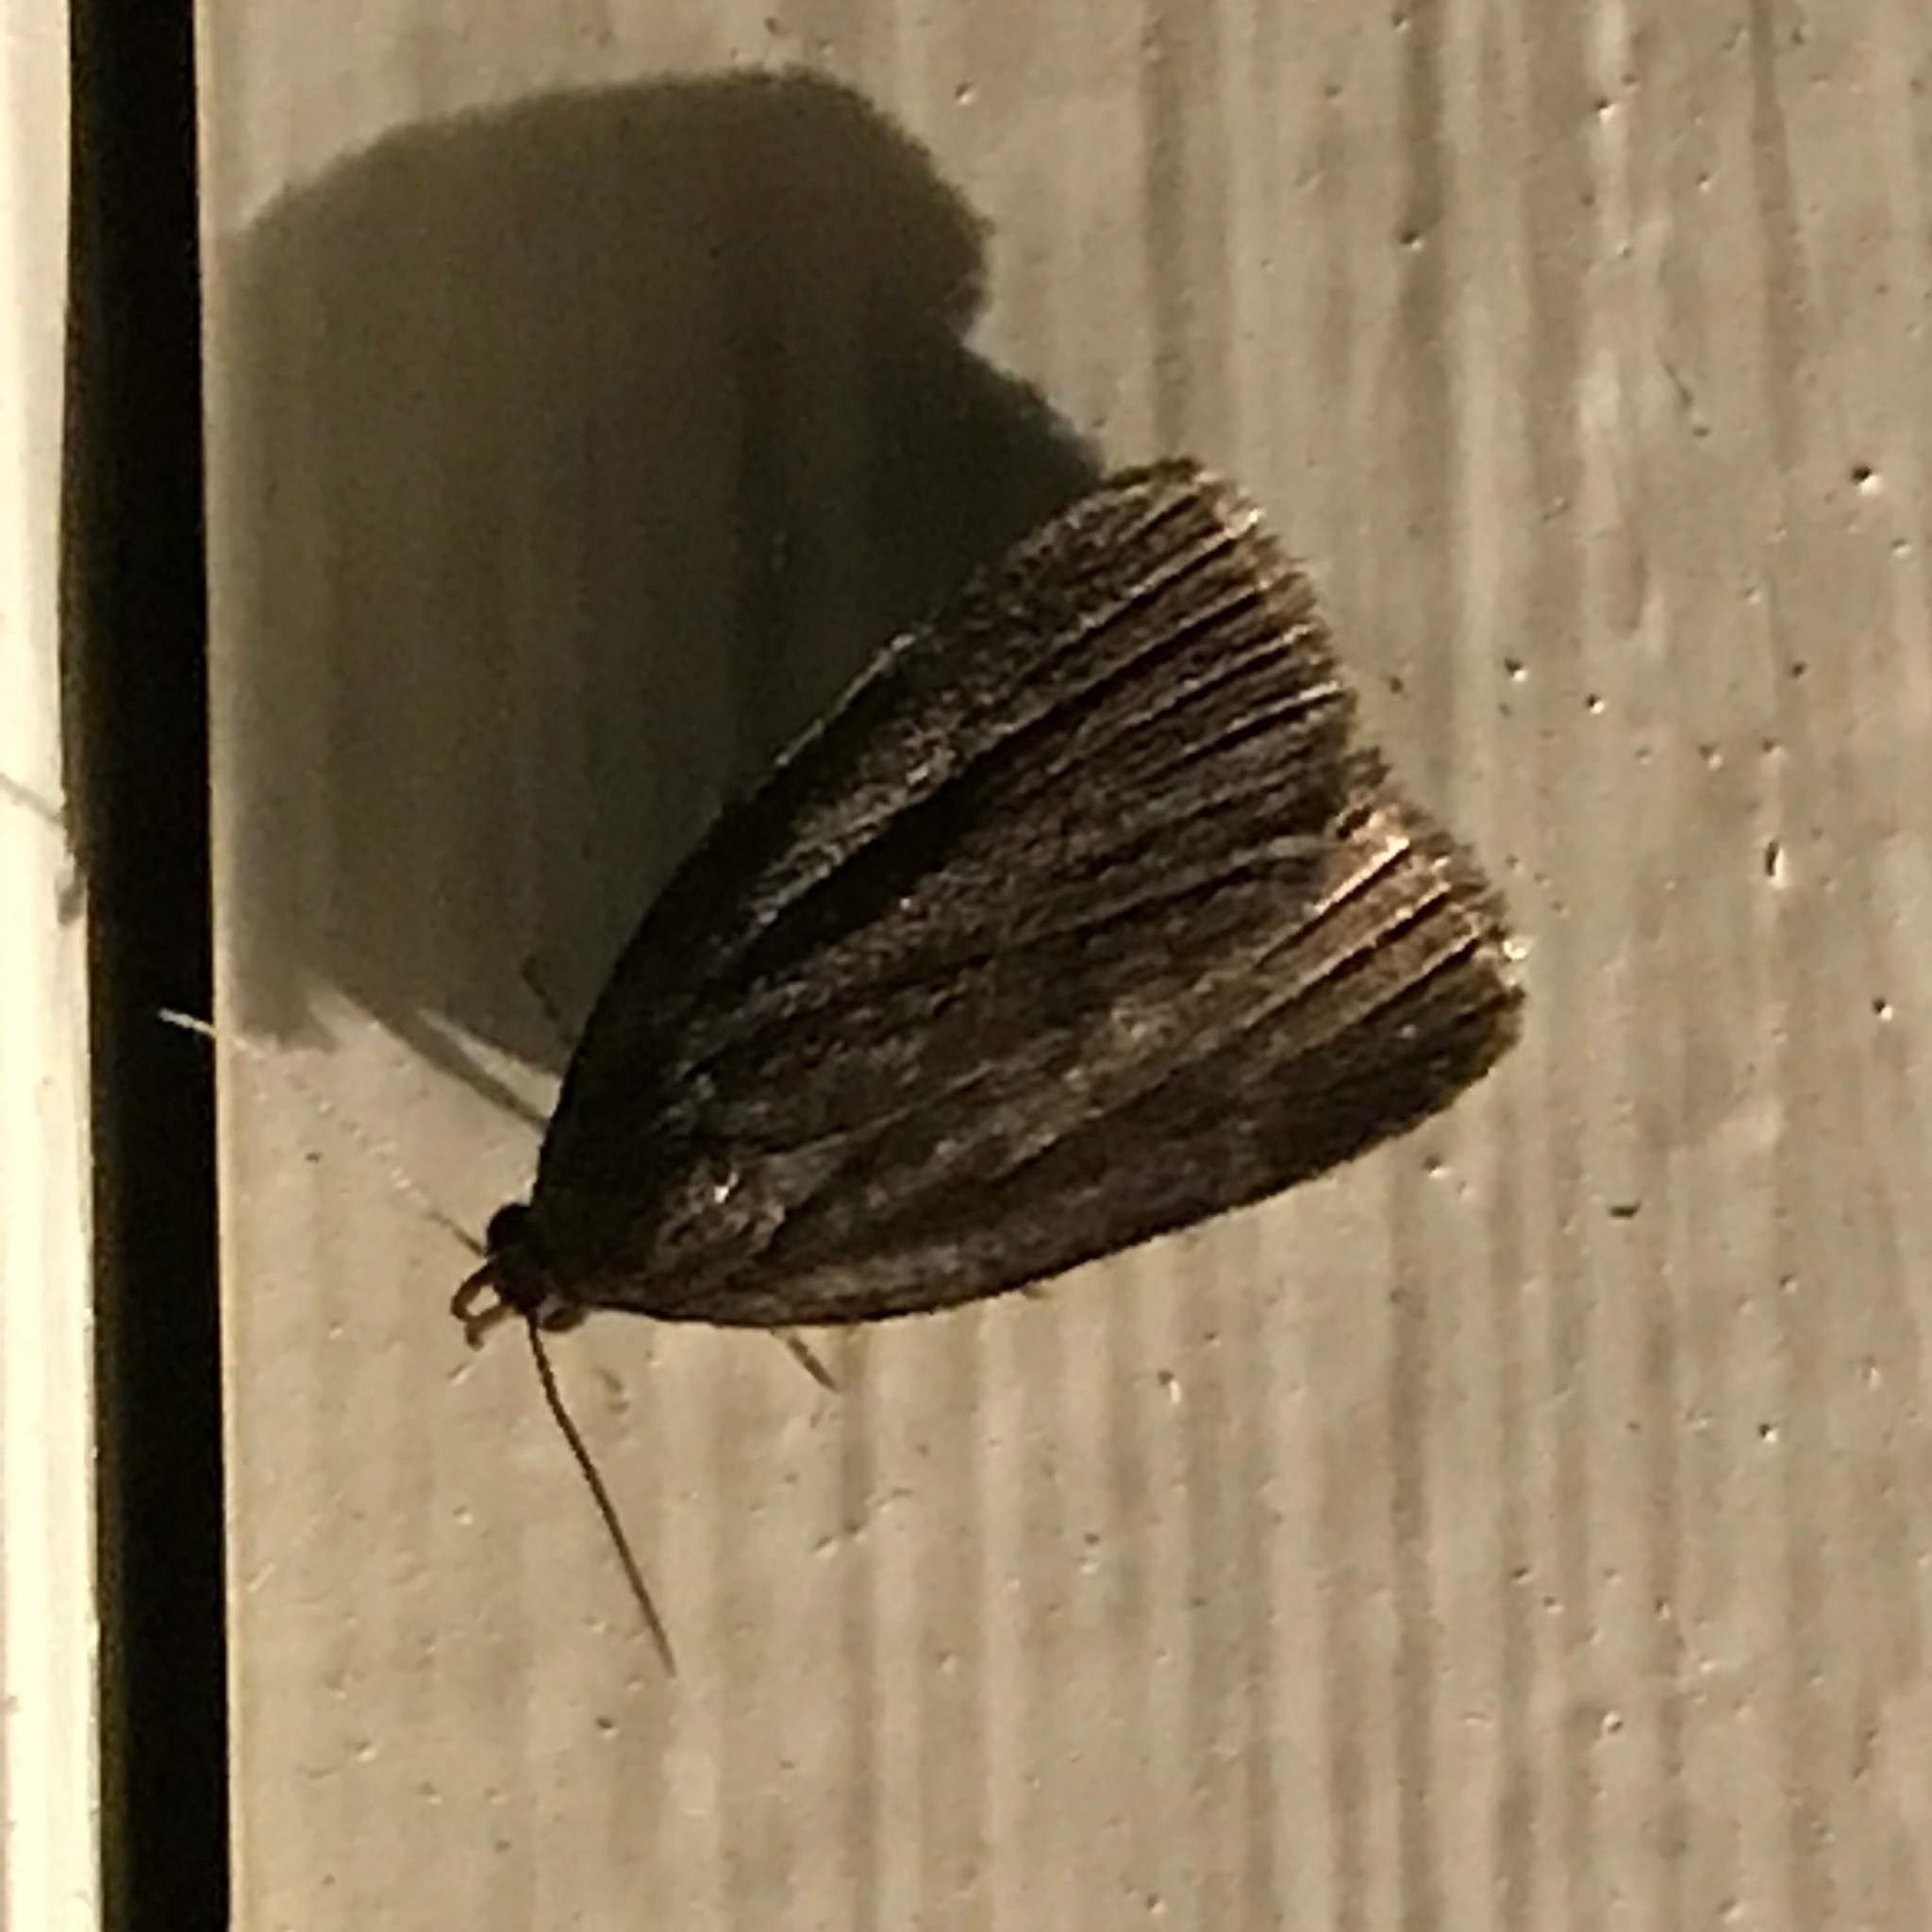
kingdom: Animalia
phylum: Arthropoda
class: Insecta
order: Lepidoptera
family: Erebidae
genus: Idia
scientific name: Idia rotundalis
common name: Rotund idia moth
